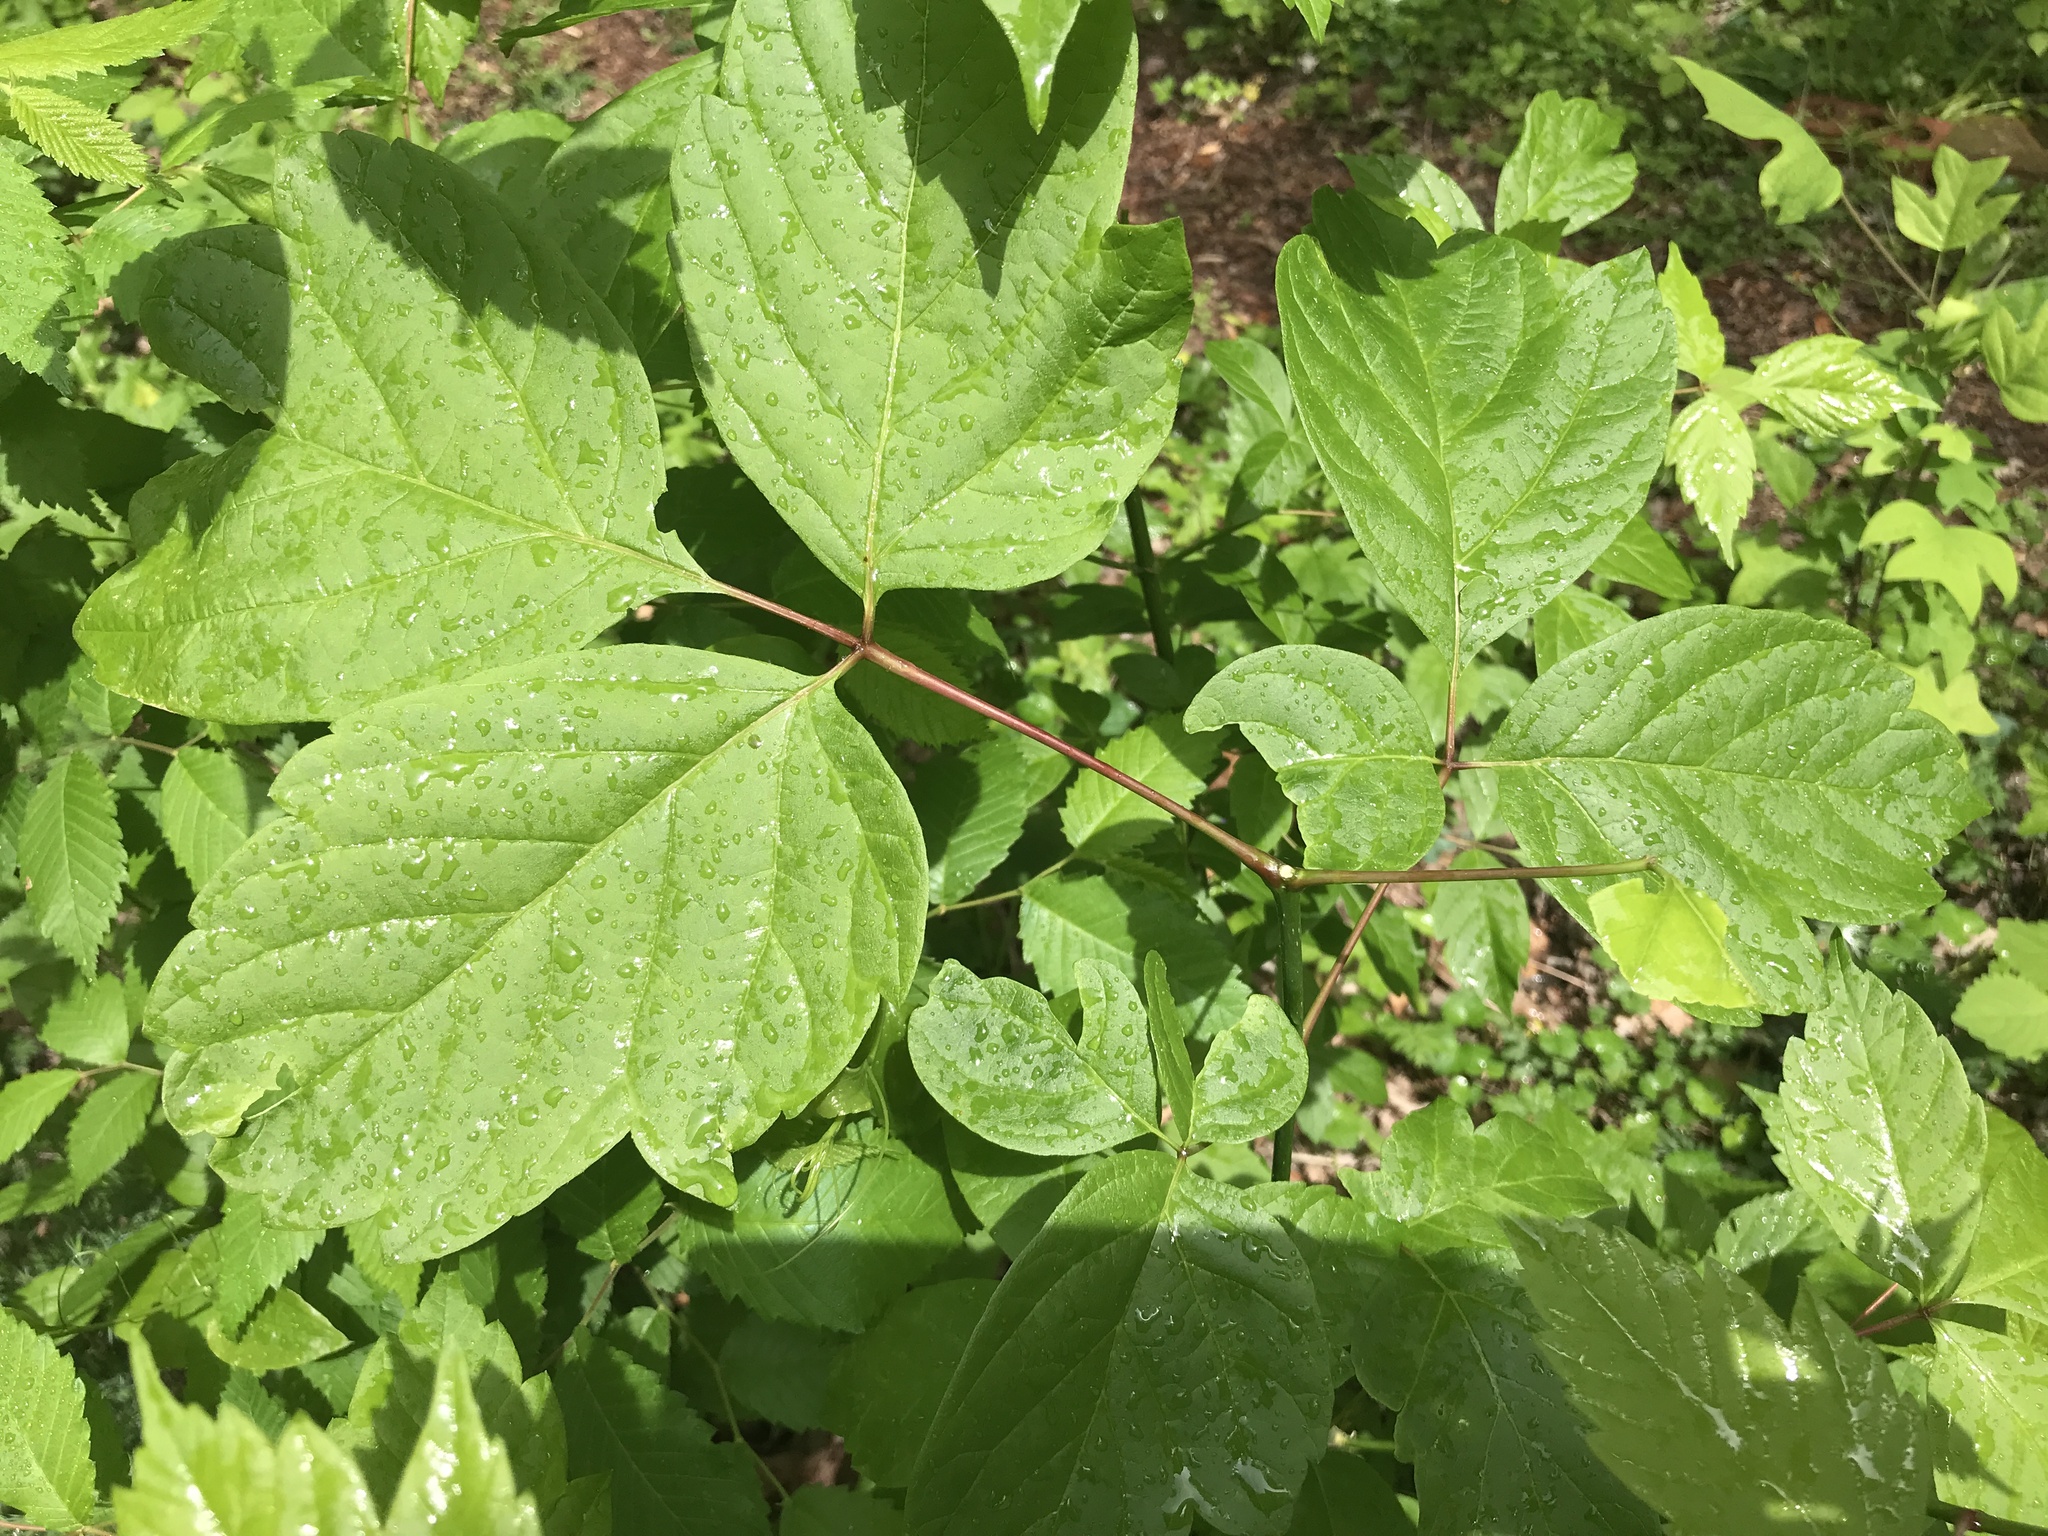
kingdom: Plantae
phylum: Tracheophyta
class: Magnoliopsida
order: Sapindales
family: Sapindaceae
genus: Acer
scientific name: Acer negundo
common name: Ashleaf maple
